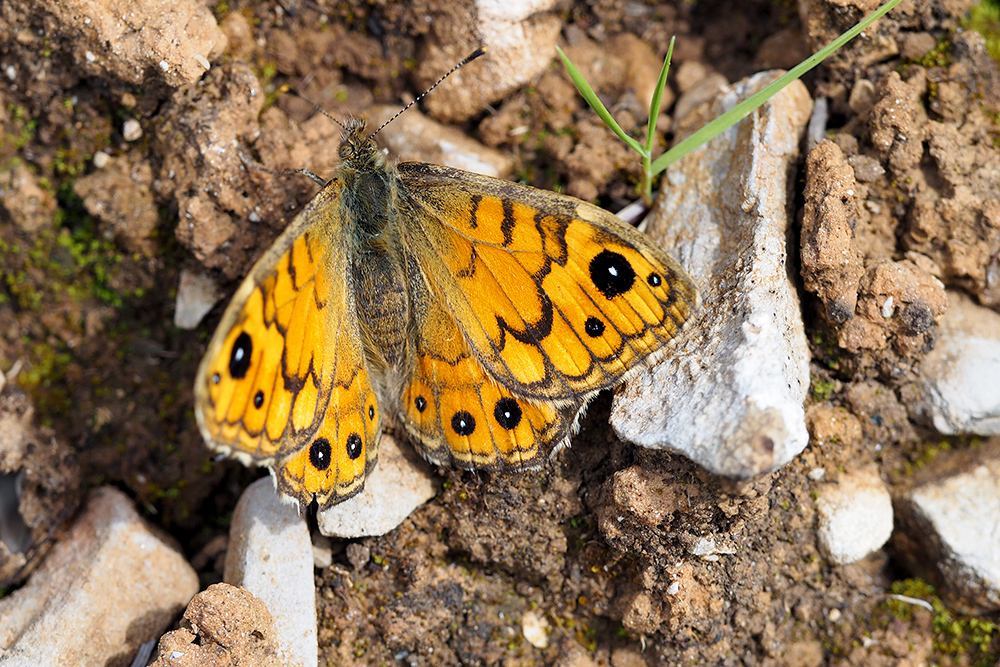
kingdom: Animalia
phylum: Arthropoda
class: Insecta
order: Lepidoptera
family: Nymphalidae
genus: Pararge
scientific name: Pararge Lasiommata megera
